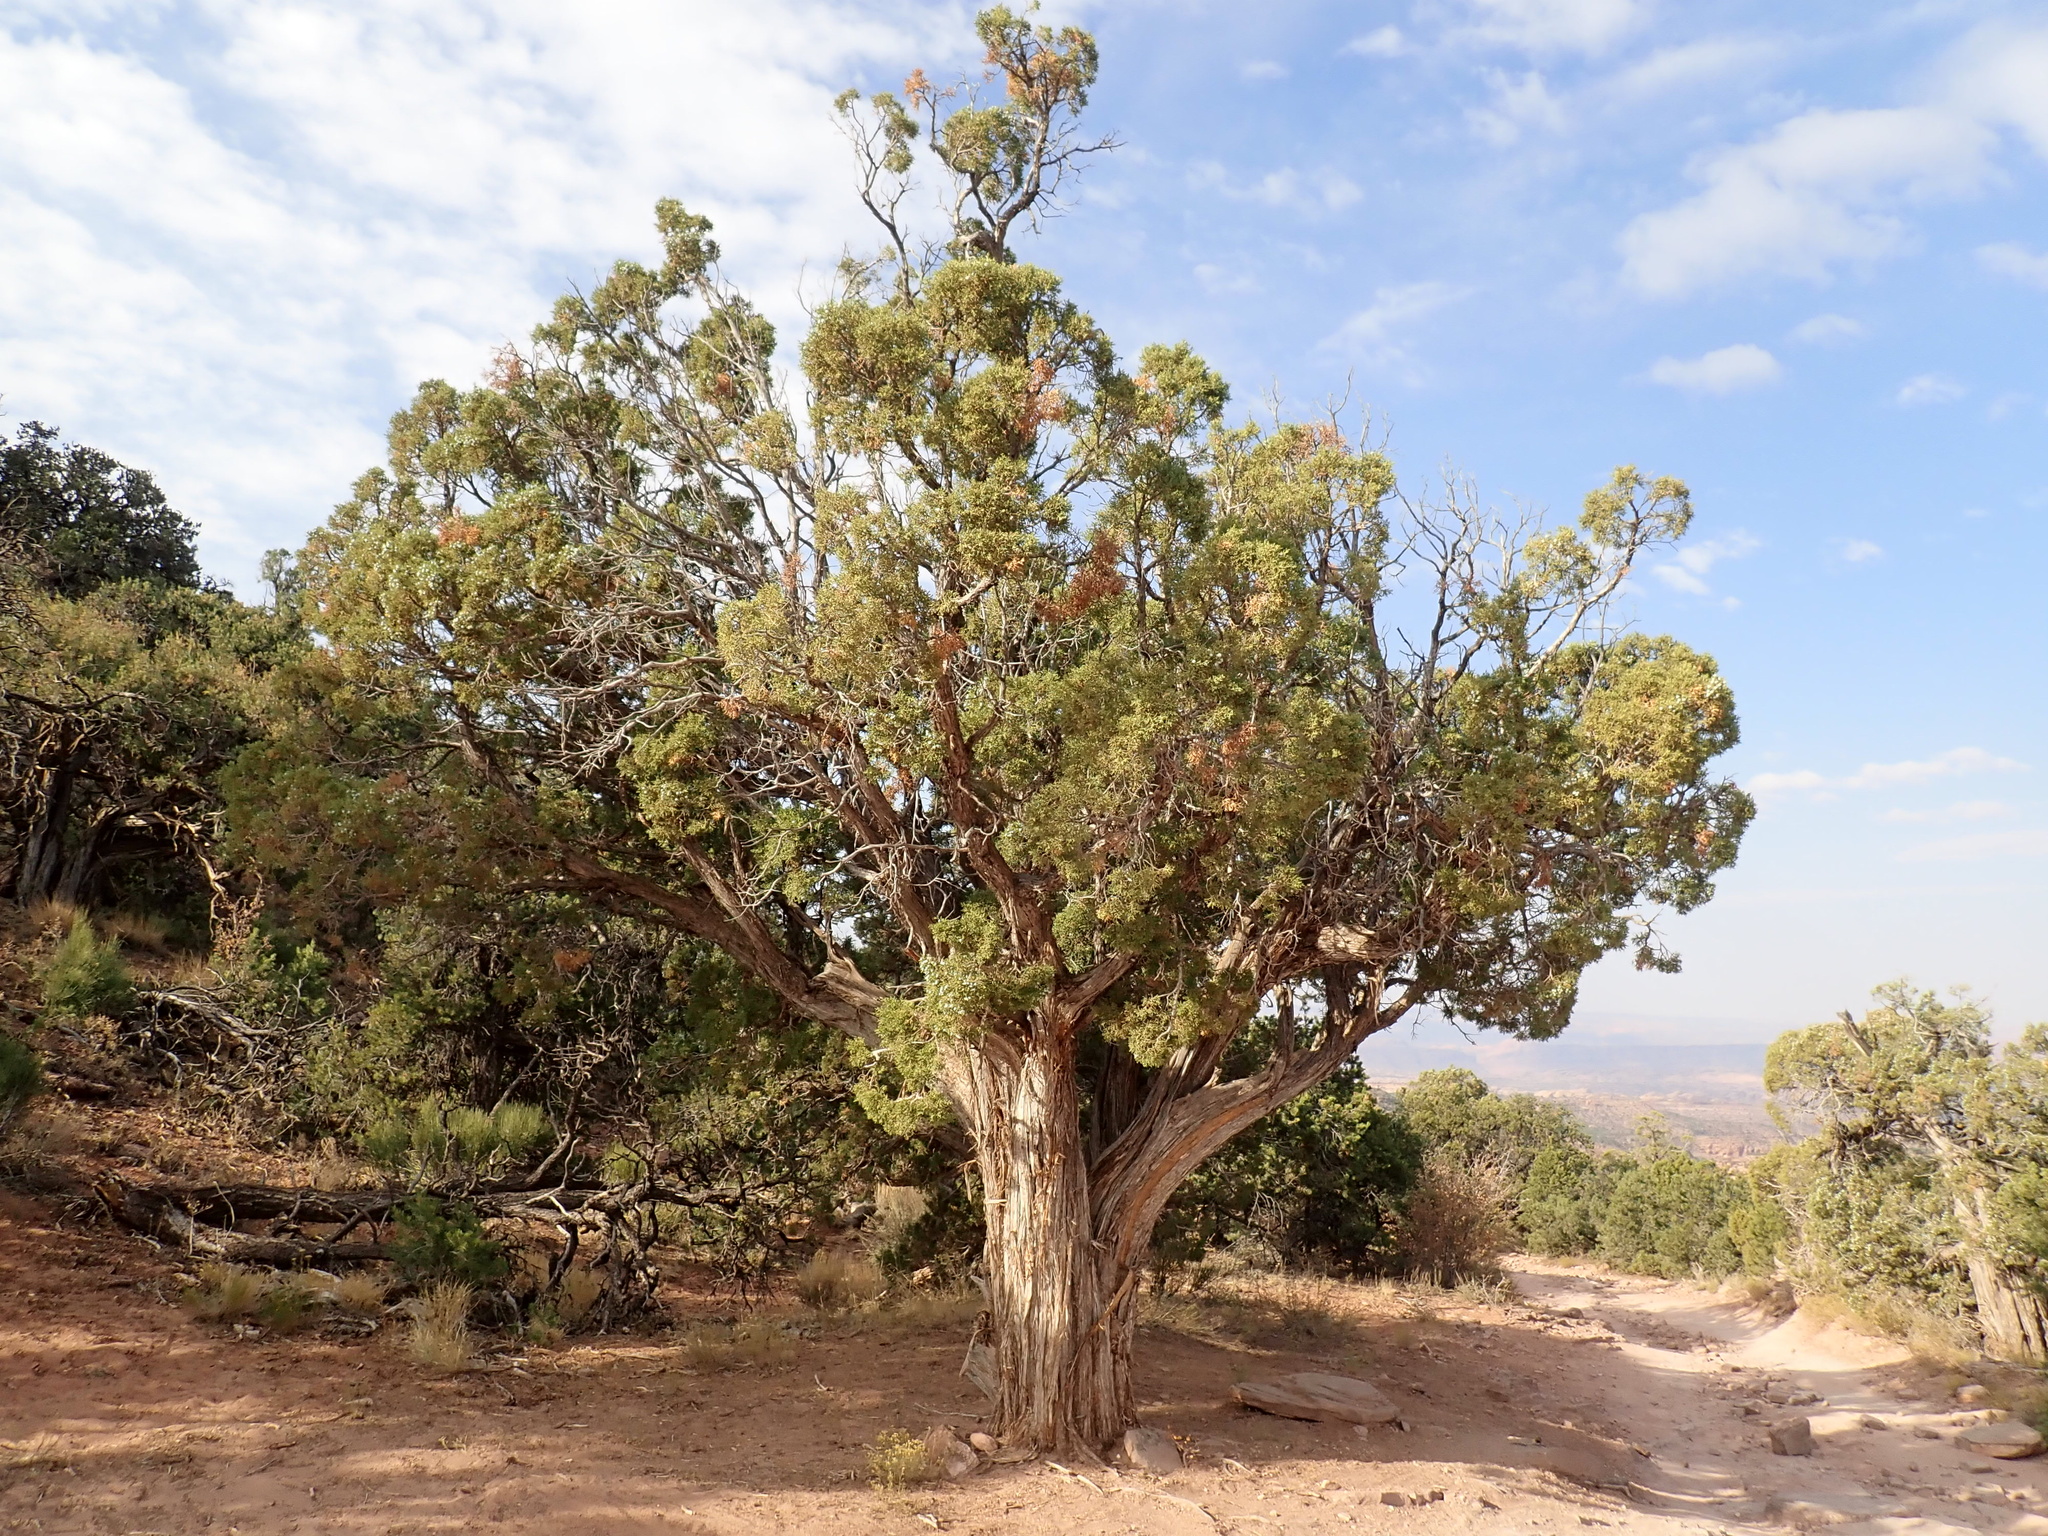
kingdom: Plantae
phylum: Tracheophyta
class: Pinopsida
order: Pinales
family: Cupressaceae
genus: Juniperus
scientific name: Juniperus osteosperma
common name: Utah juniper
